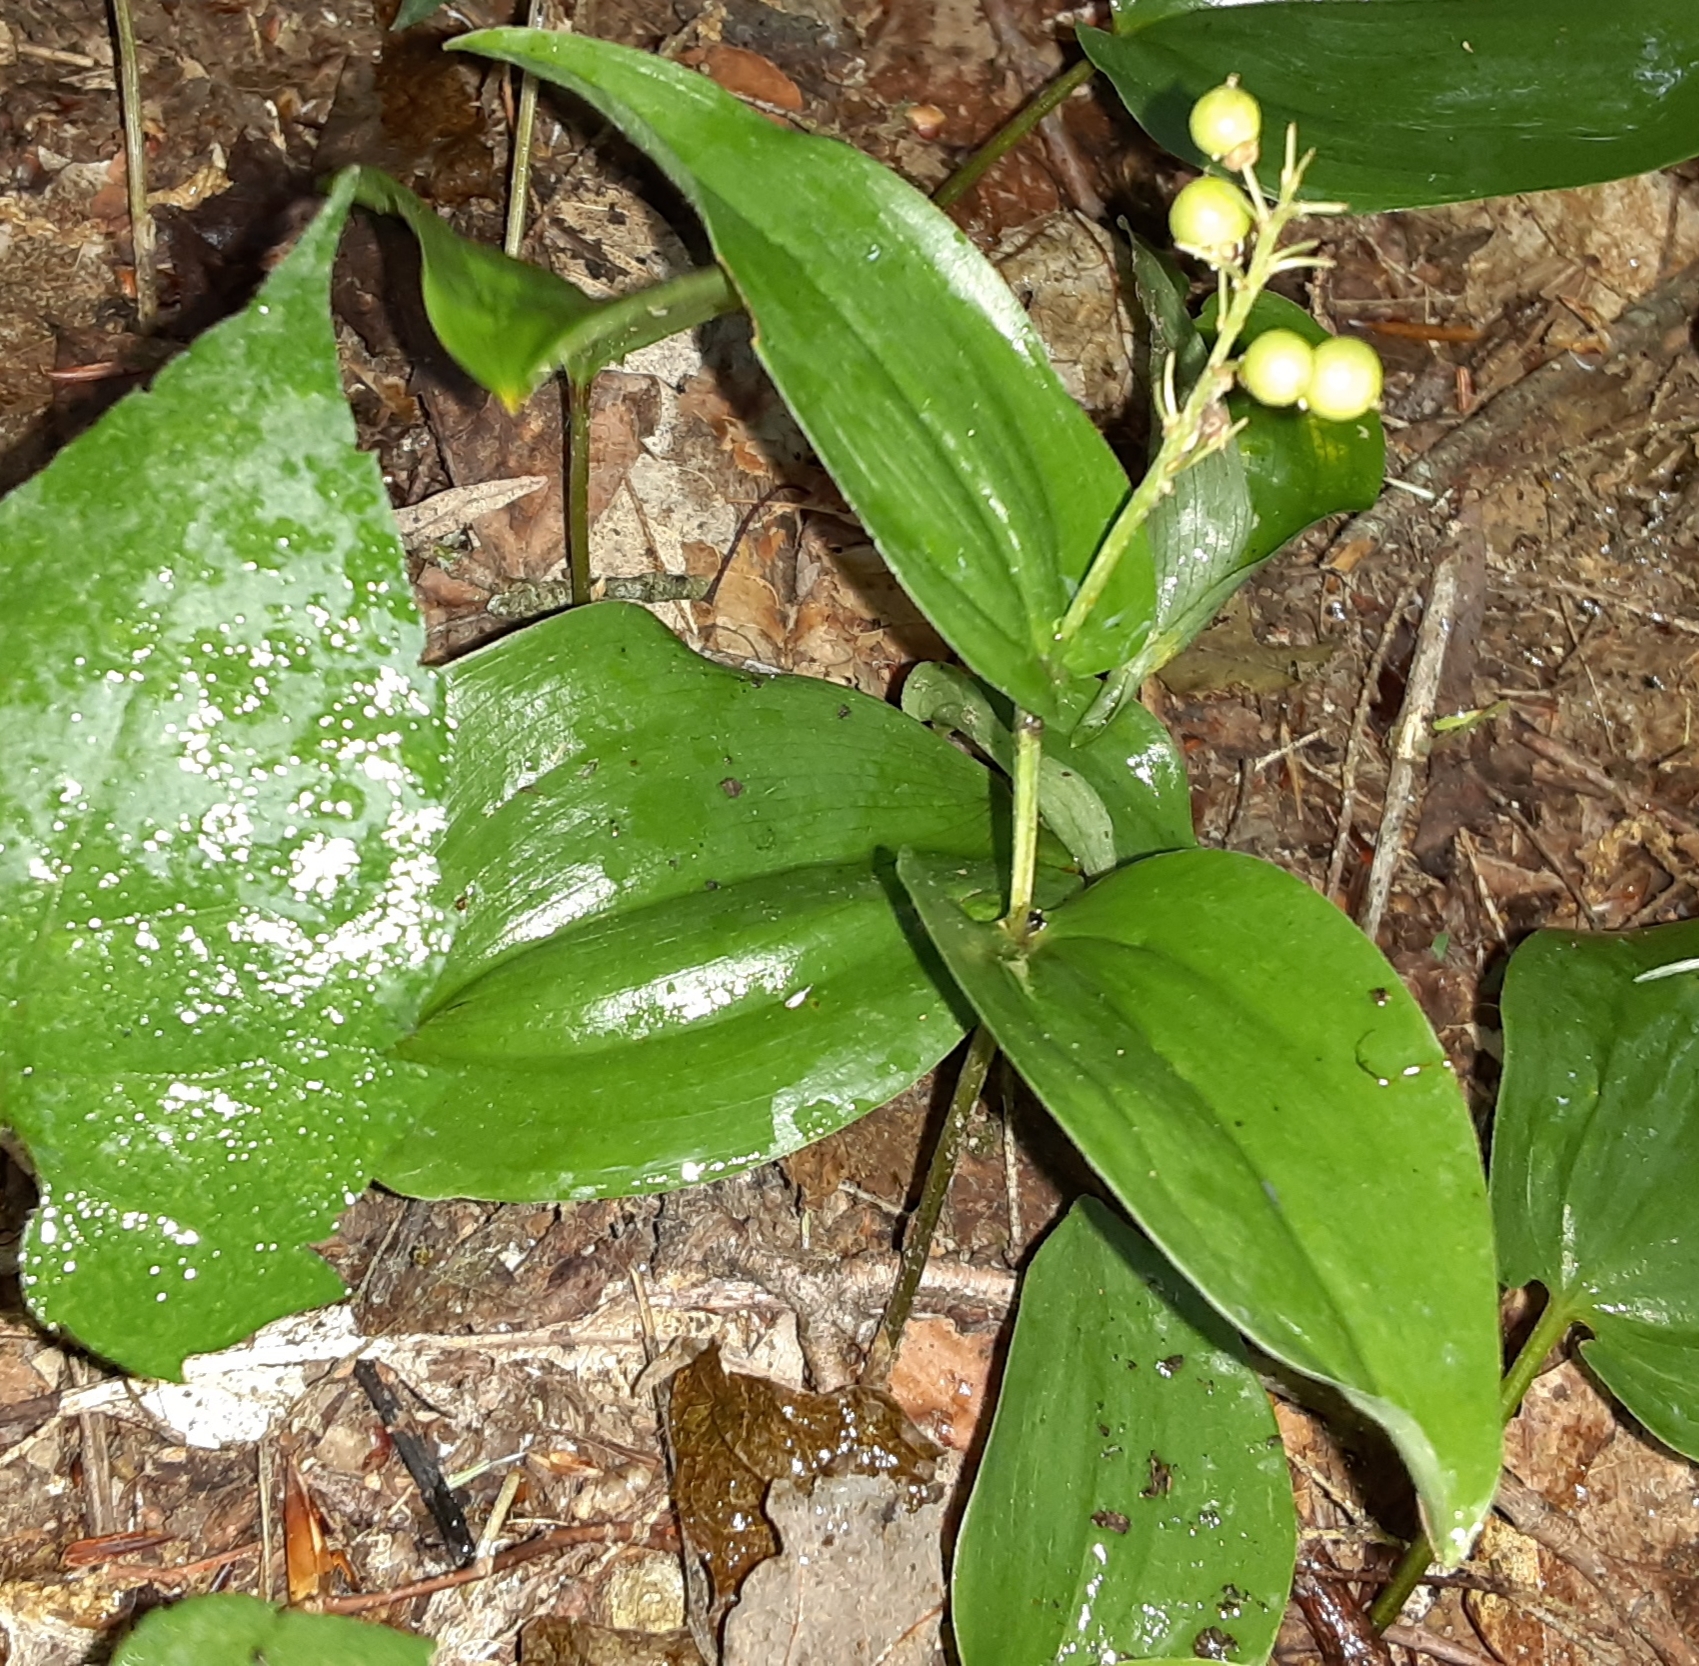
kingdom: Plantae
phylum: Tracheophyta
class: Liliopsida
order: Asparagales
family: Asparagaceae
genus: Maianthemum
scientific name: Maianthemum canadense
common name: False lily-of-the-valley
